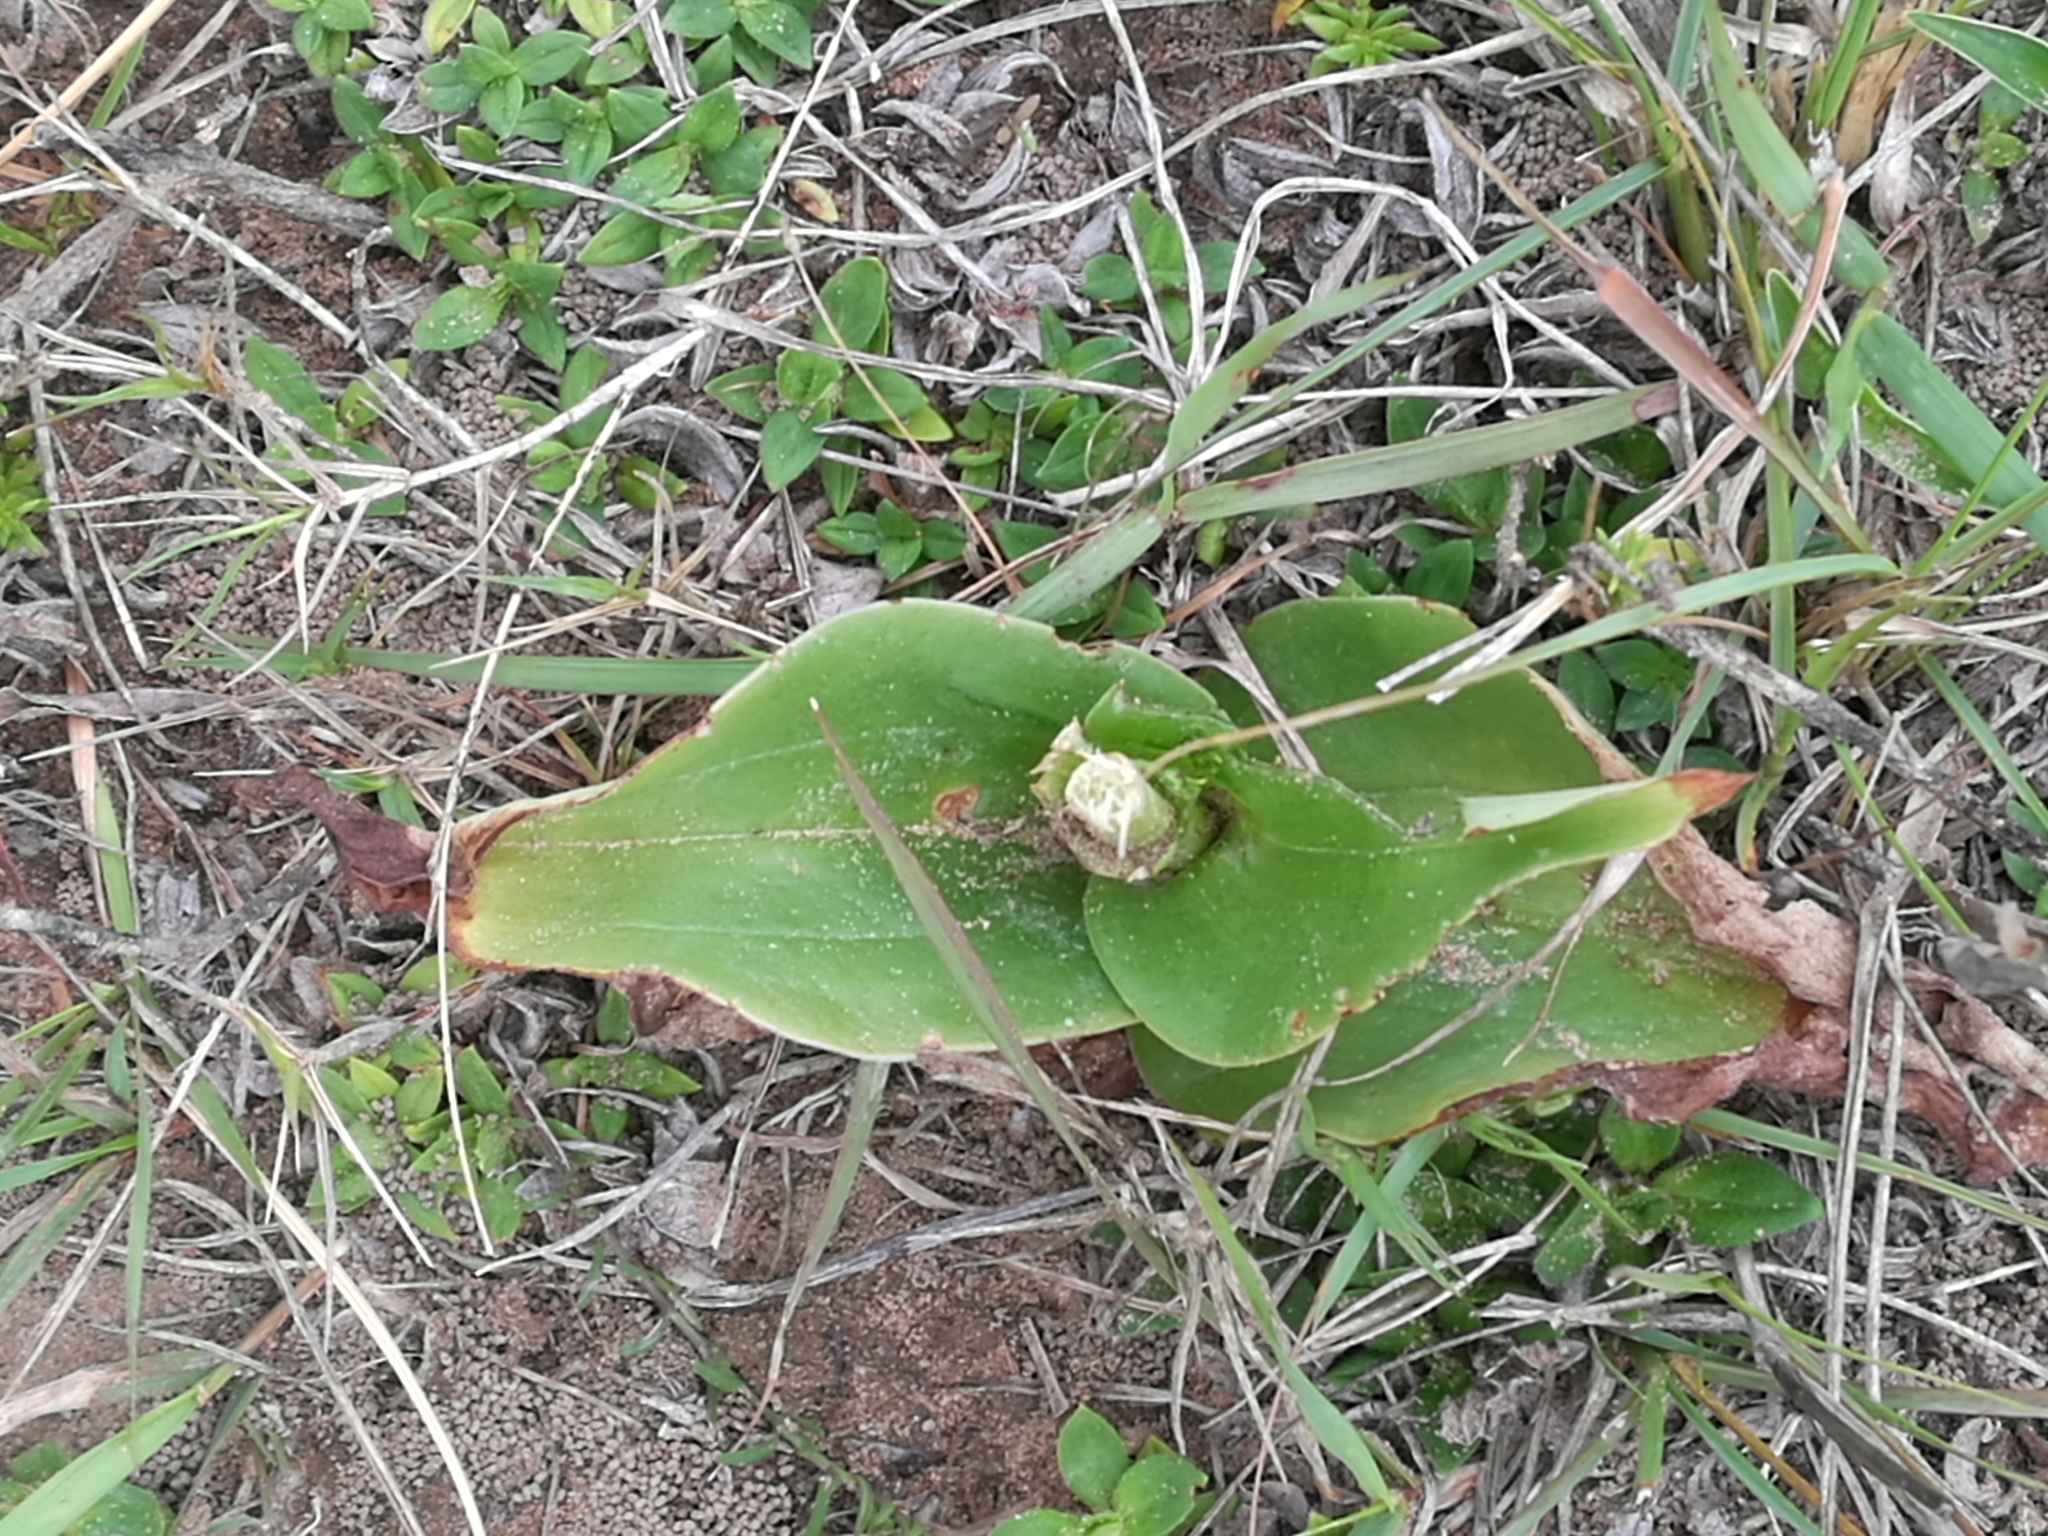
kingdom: Plantae
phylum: Tracheophyta
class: Liliopsida
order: Asparagales
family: Orchidaceae
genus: Satyrium
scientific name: Satyrium parviflorum
